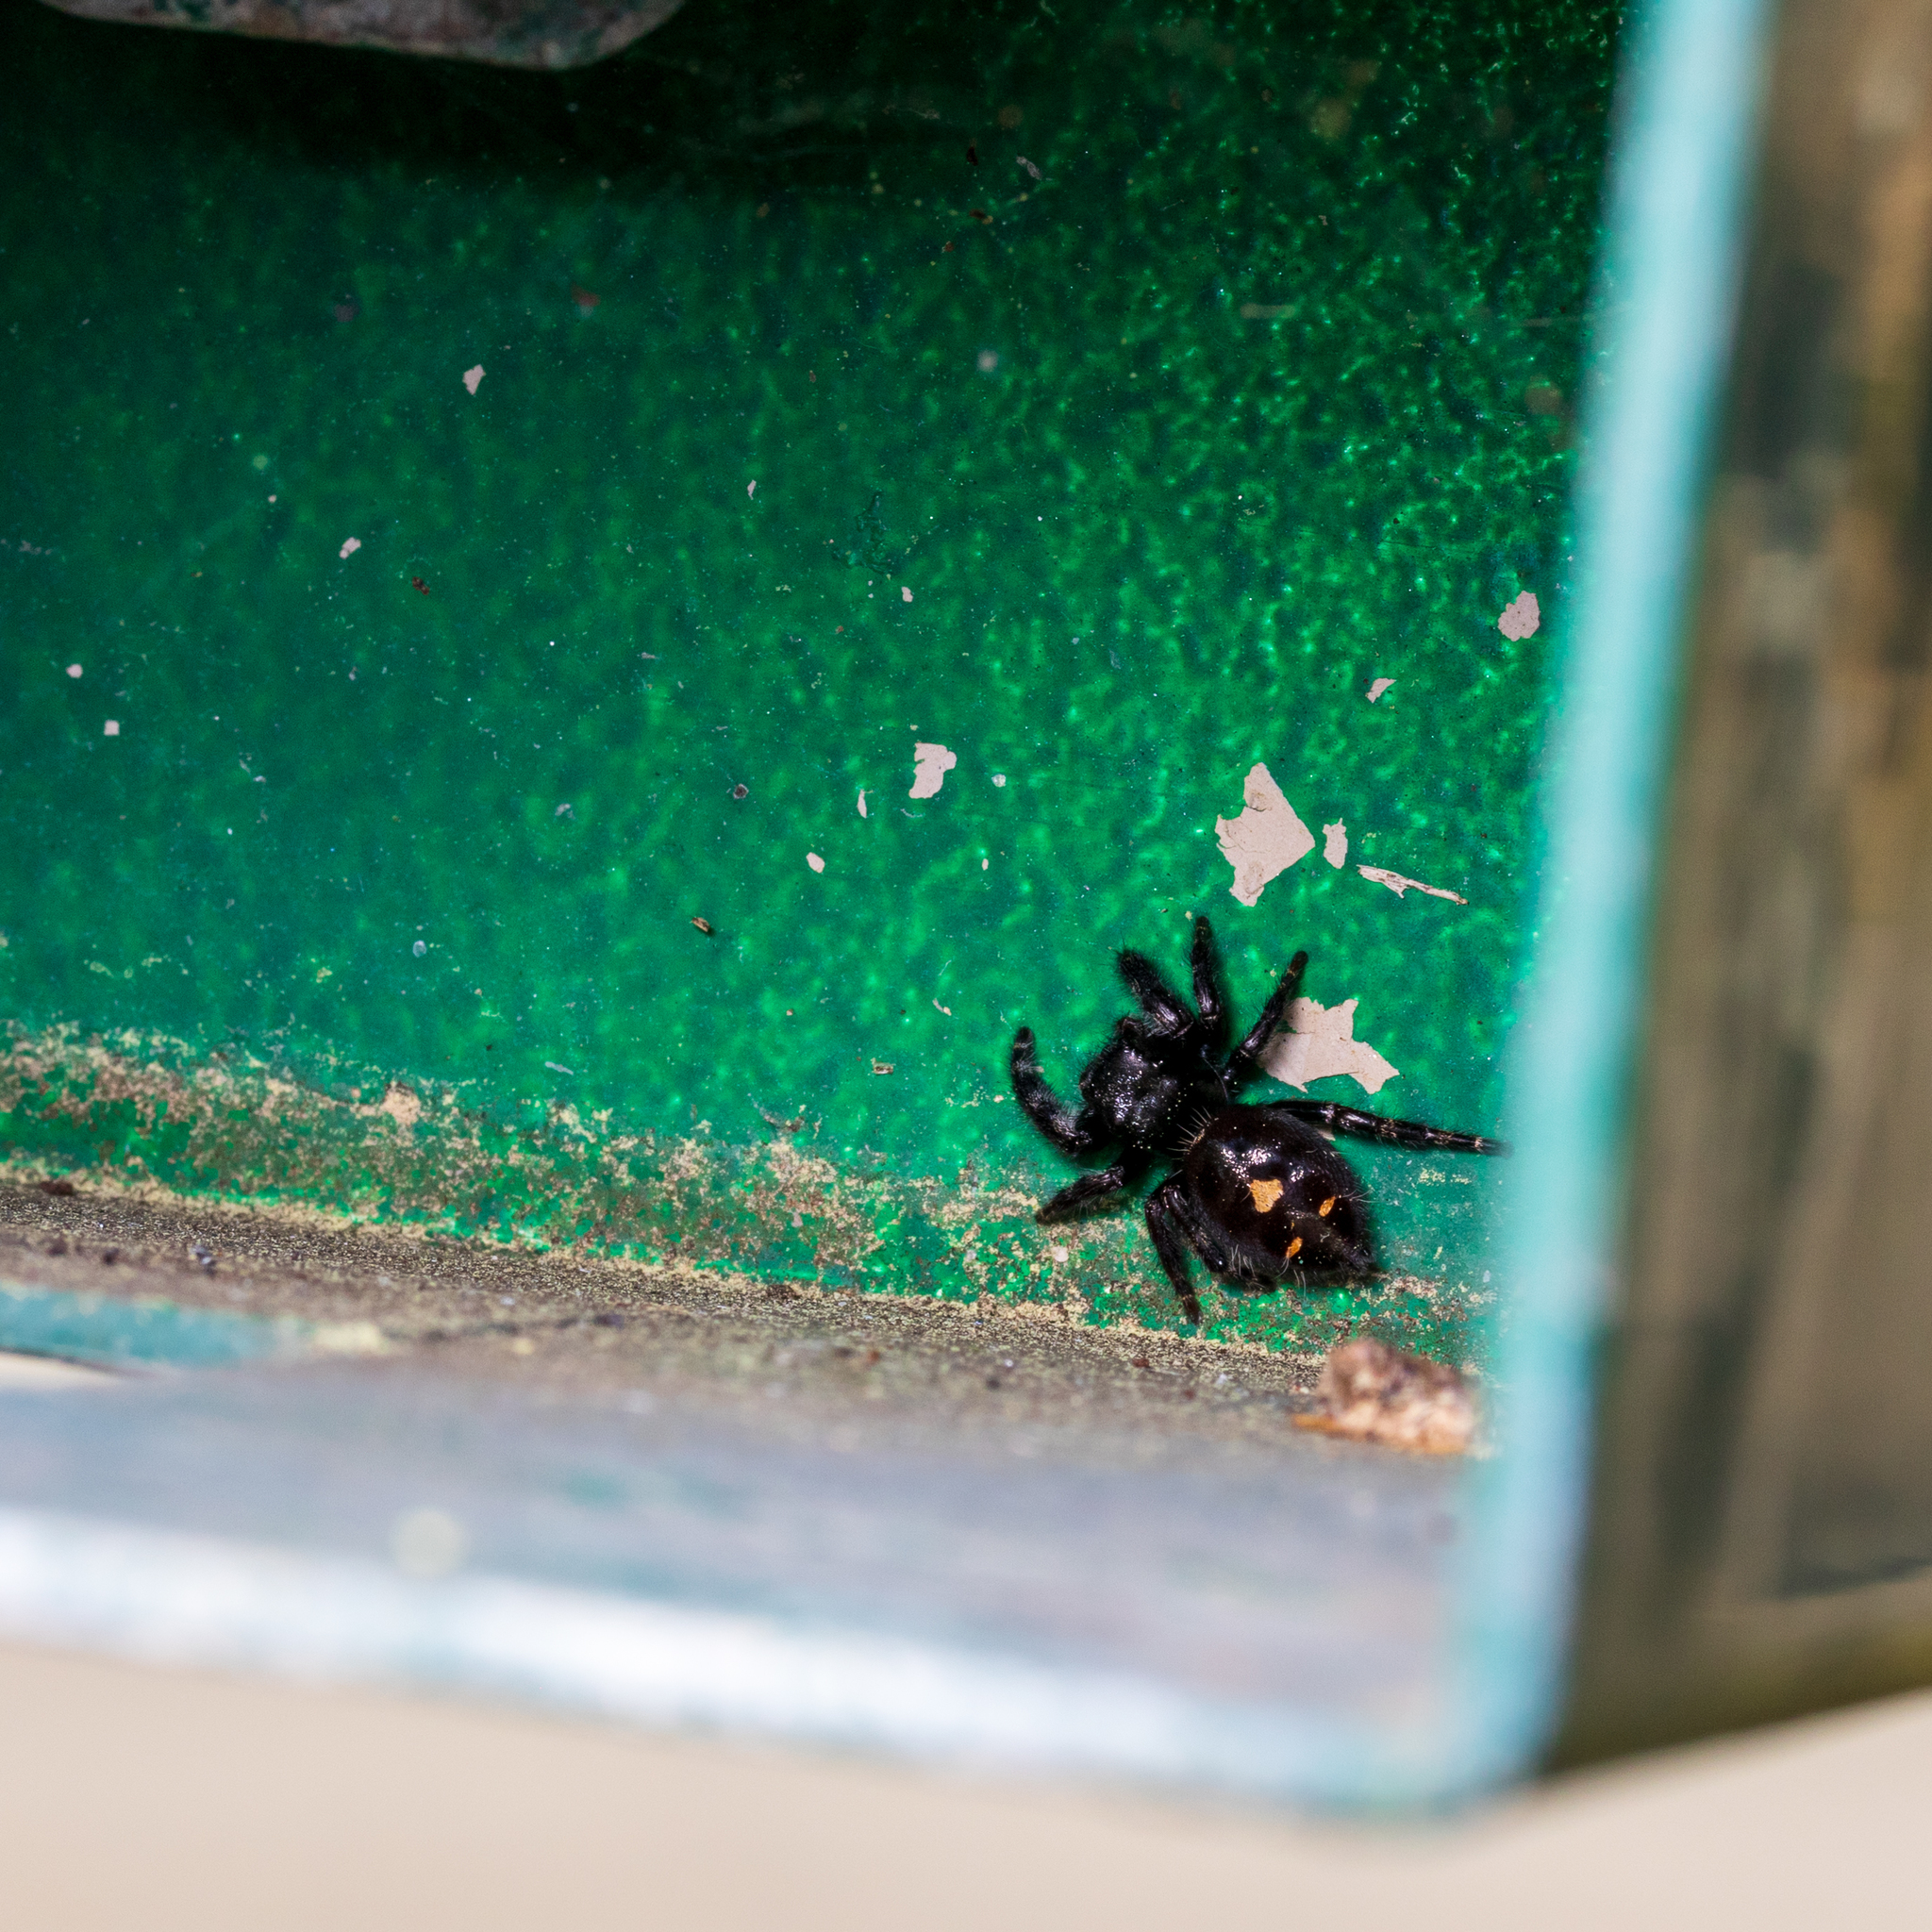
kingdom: Animalia
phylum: Arthropoda
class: Arachnida
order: Araneae
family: Salticidae
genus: Phidippus
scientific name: Phidippus audax
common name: Bold jumper
